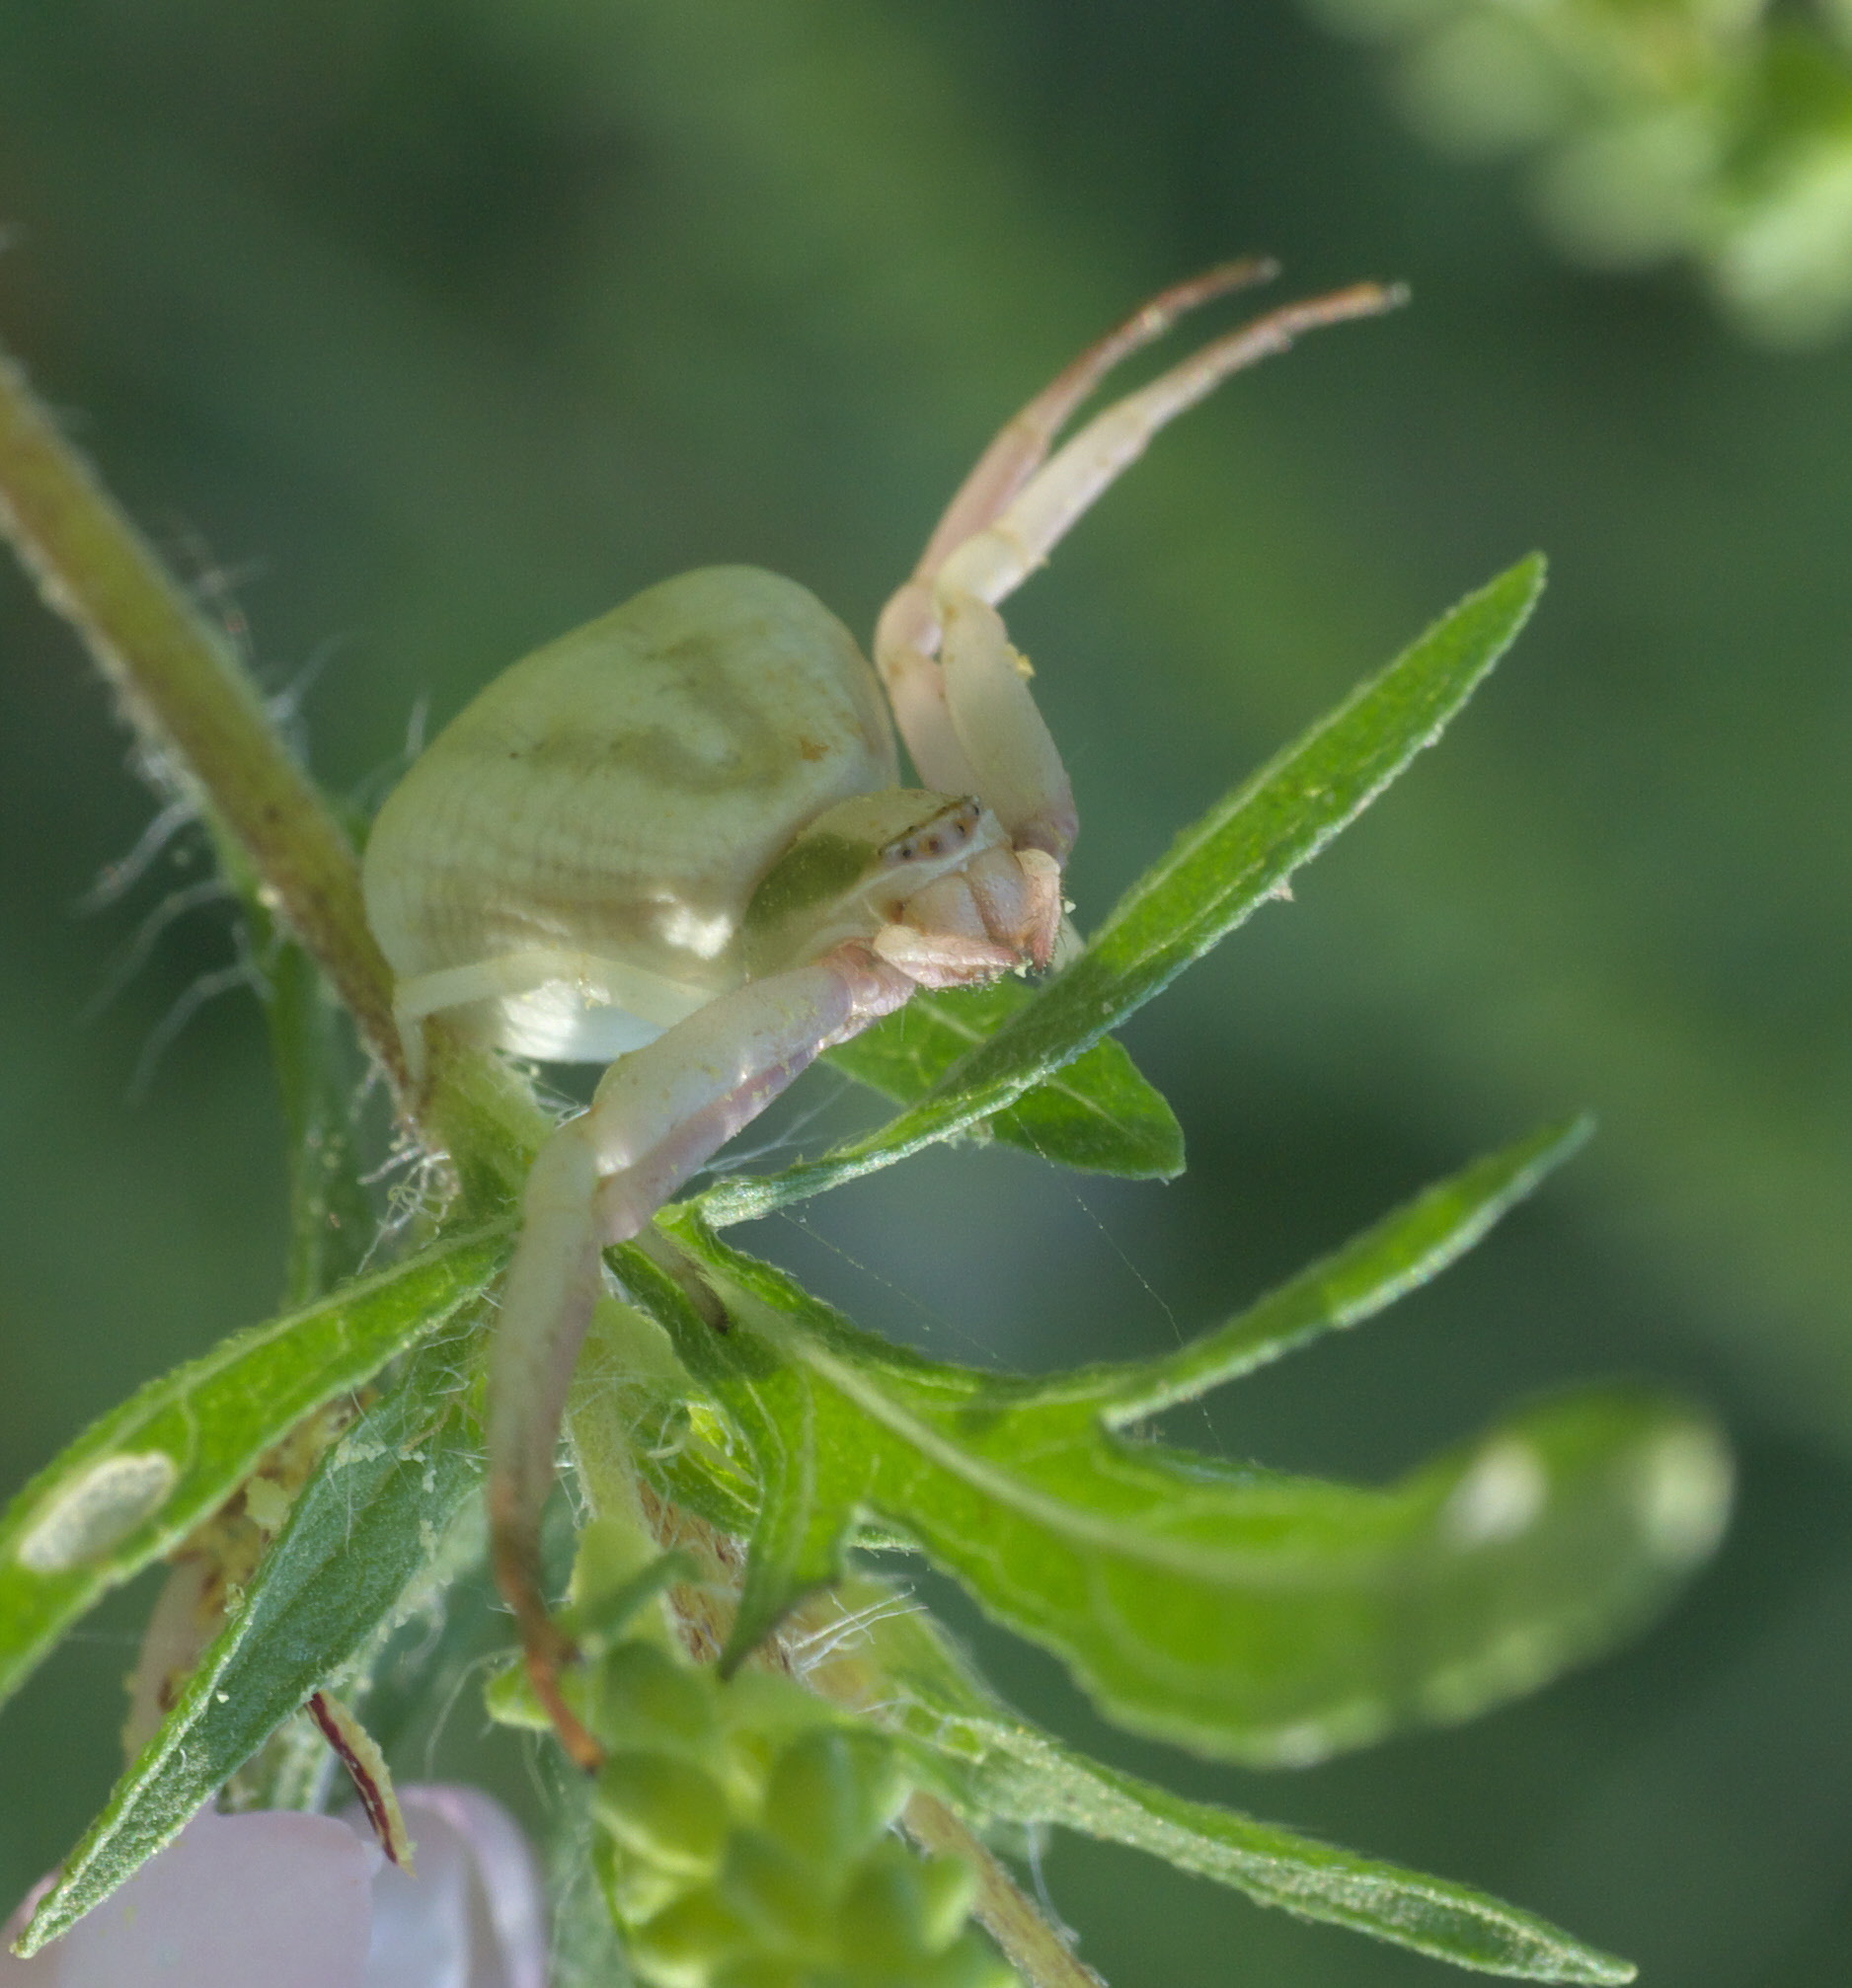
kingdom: Animalia
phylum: Arthropoda
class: Arachnida
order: Araneae
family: Thomisidae
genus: Misumenoides
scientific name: Misumenoides formosipes
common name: White-banded crab spider
